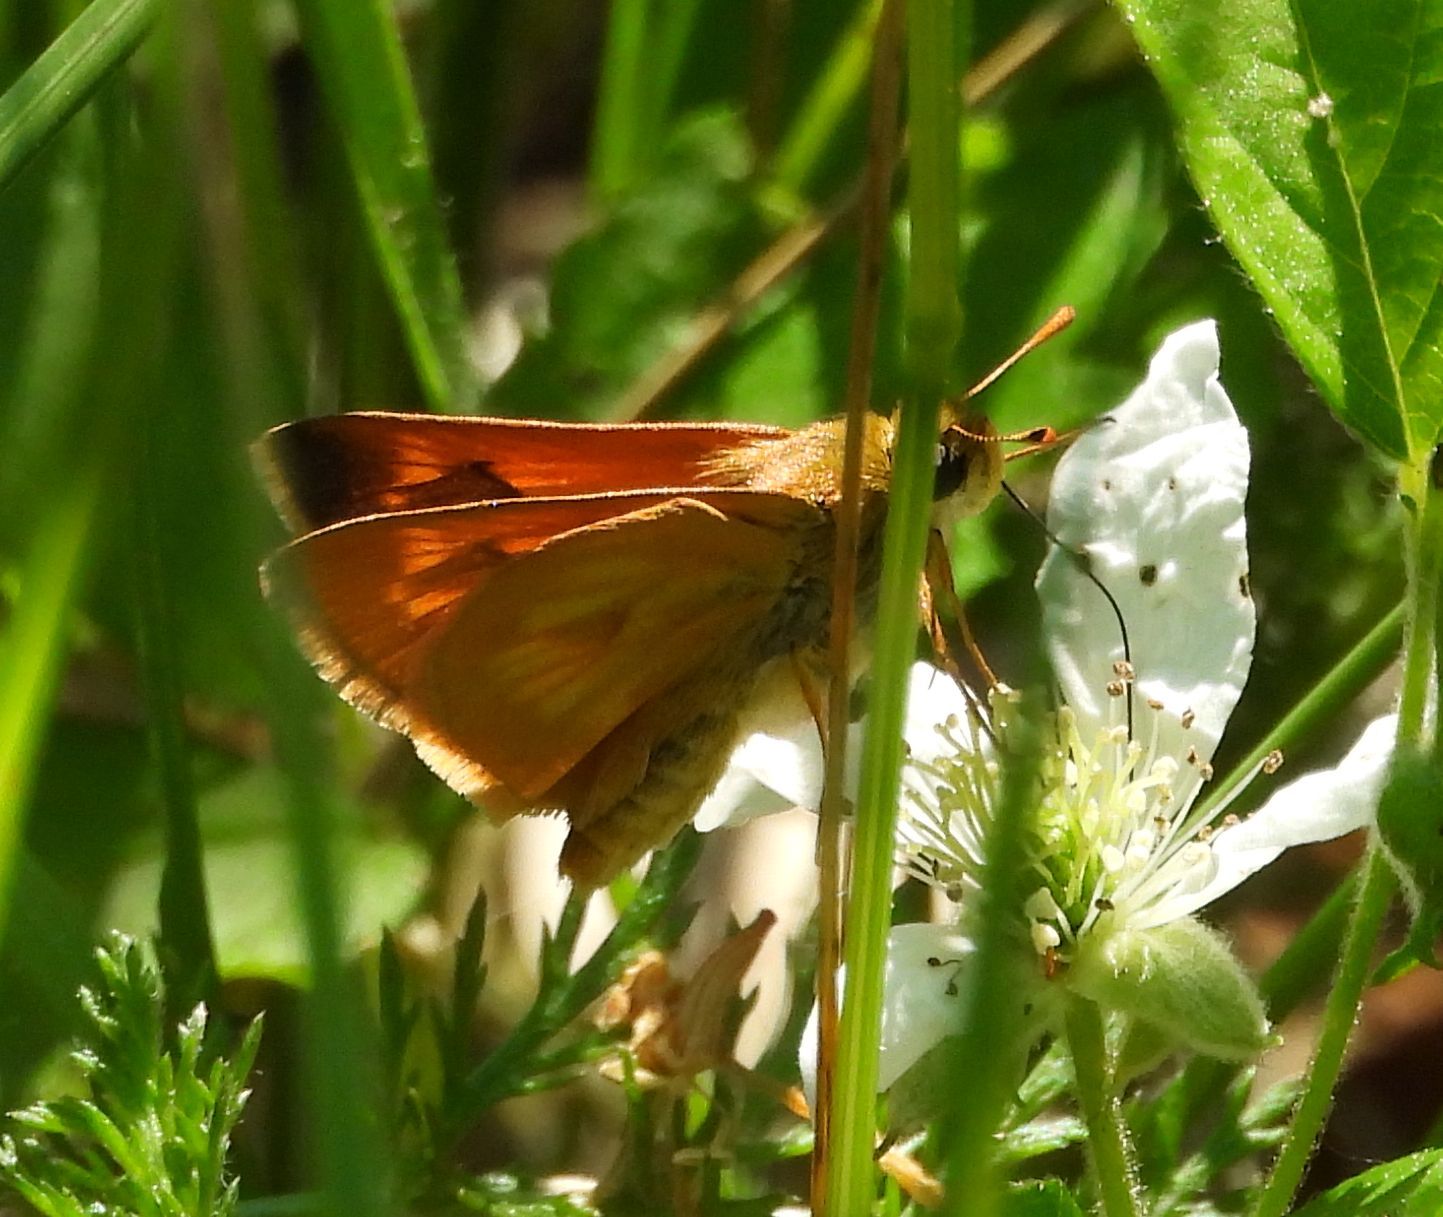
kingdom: Animalia
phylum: Arthropoda
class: Insecta
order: Lepidoptera
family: Hesperiidae
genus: Polites
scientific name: Polites mystic
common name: Long dash
